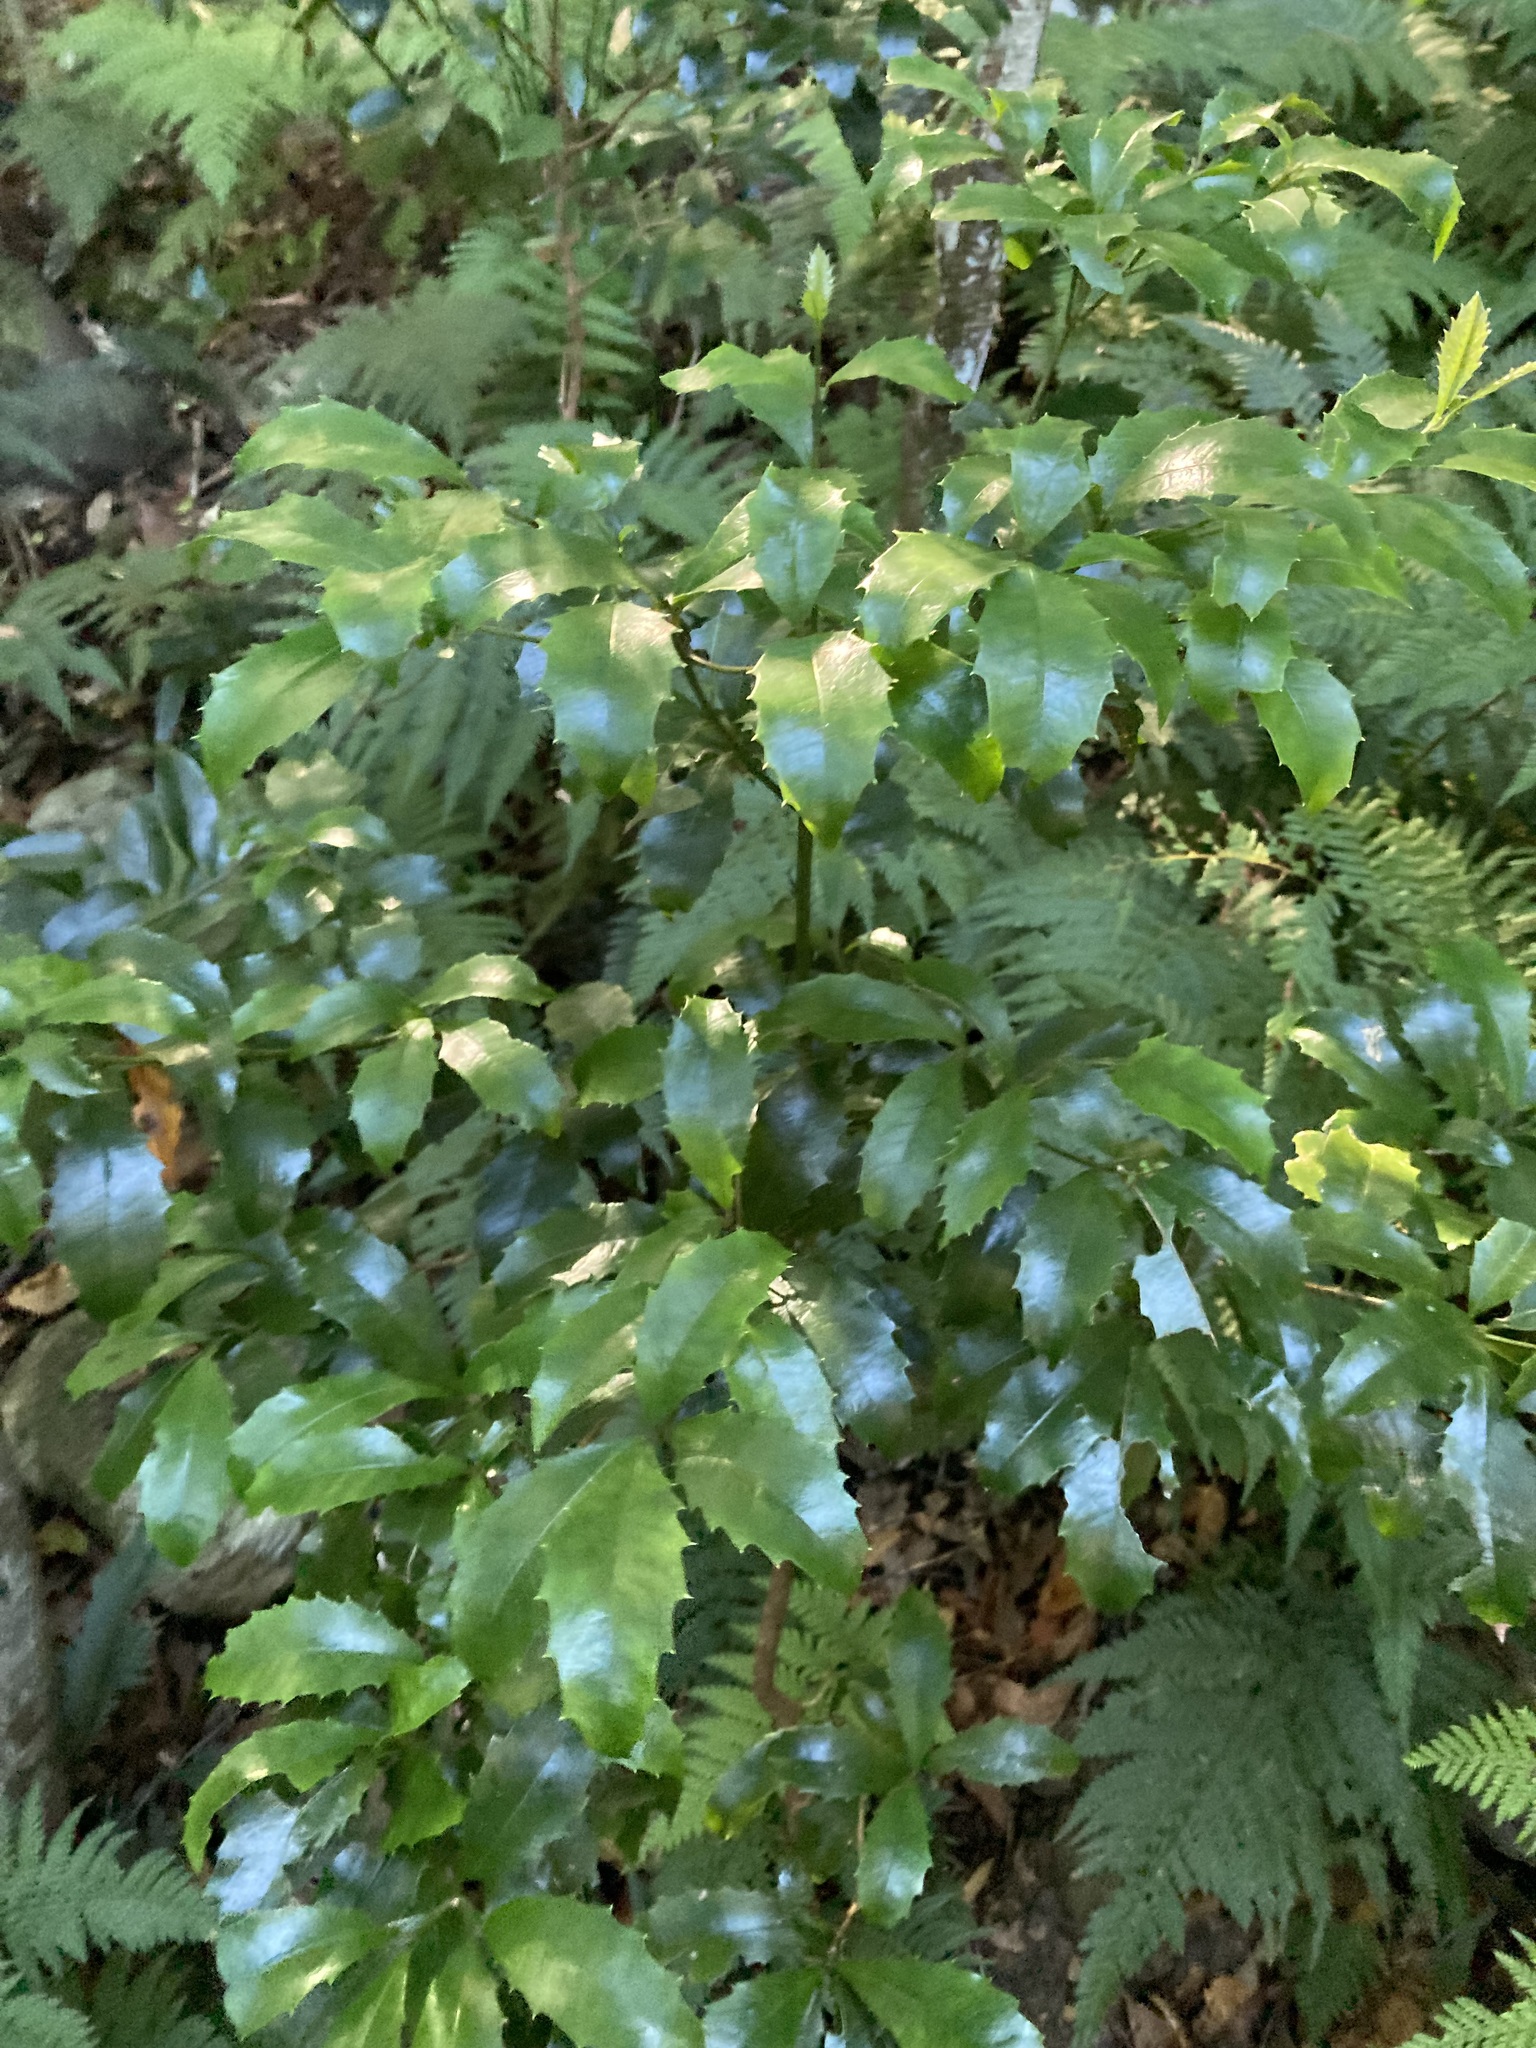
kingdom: Plantae
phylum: Tracheophyta
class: Magnoliopsida
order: Escalloniales
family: Escalloniaceae
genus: Polyosma
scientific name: Polyosma cunninghamii
